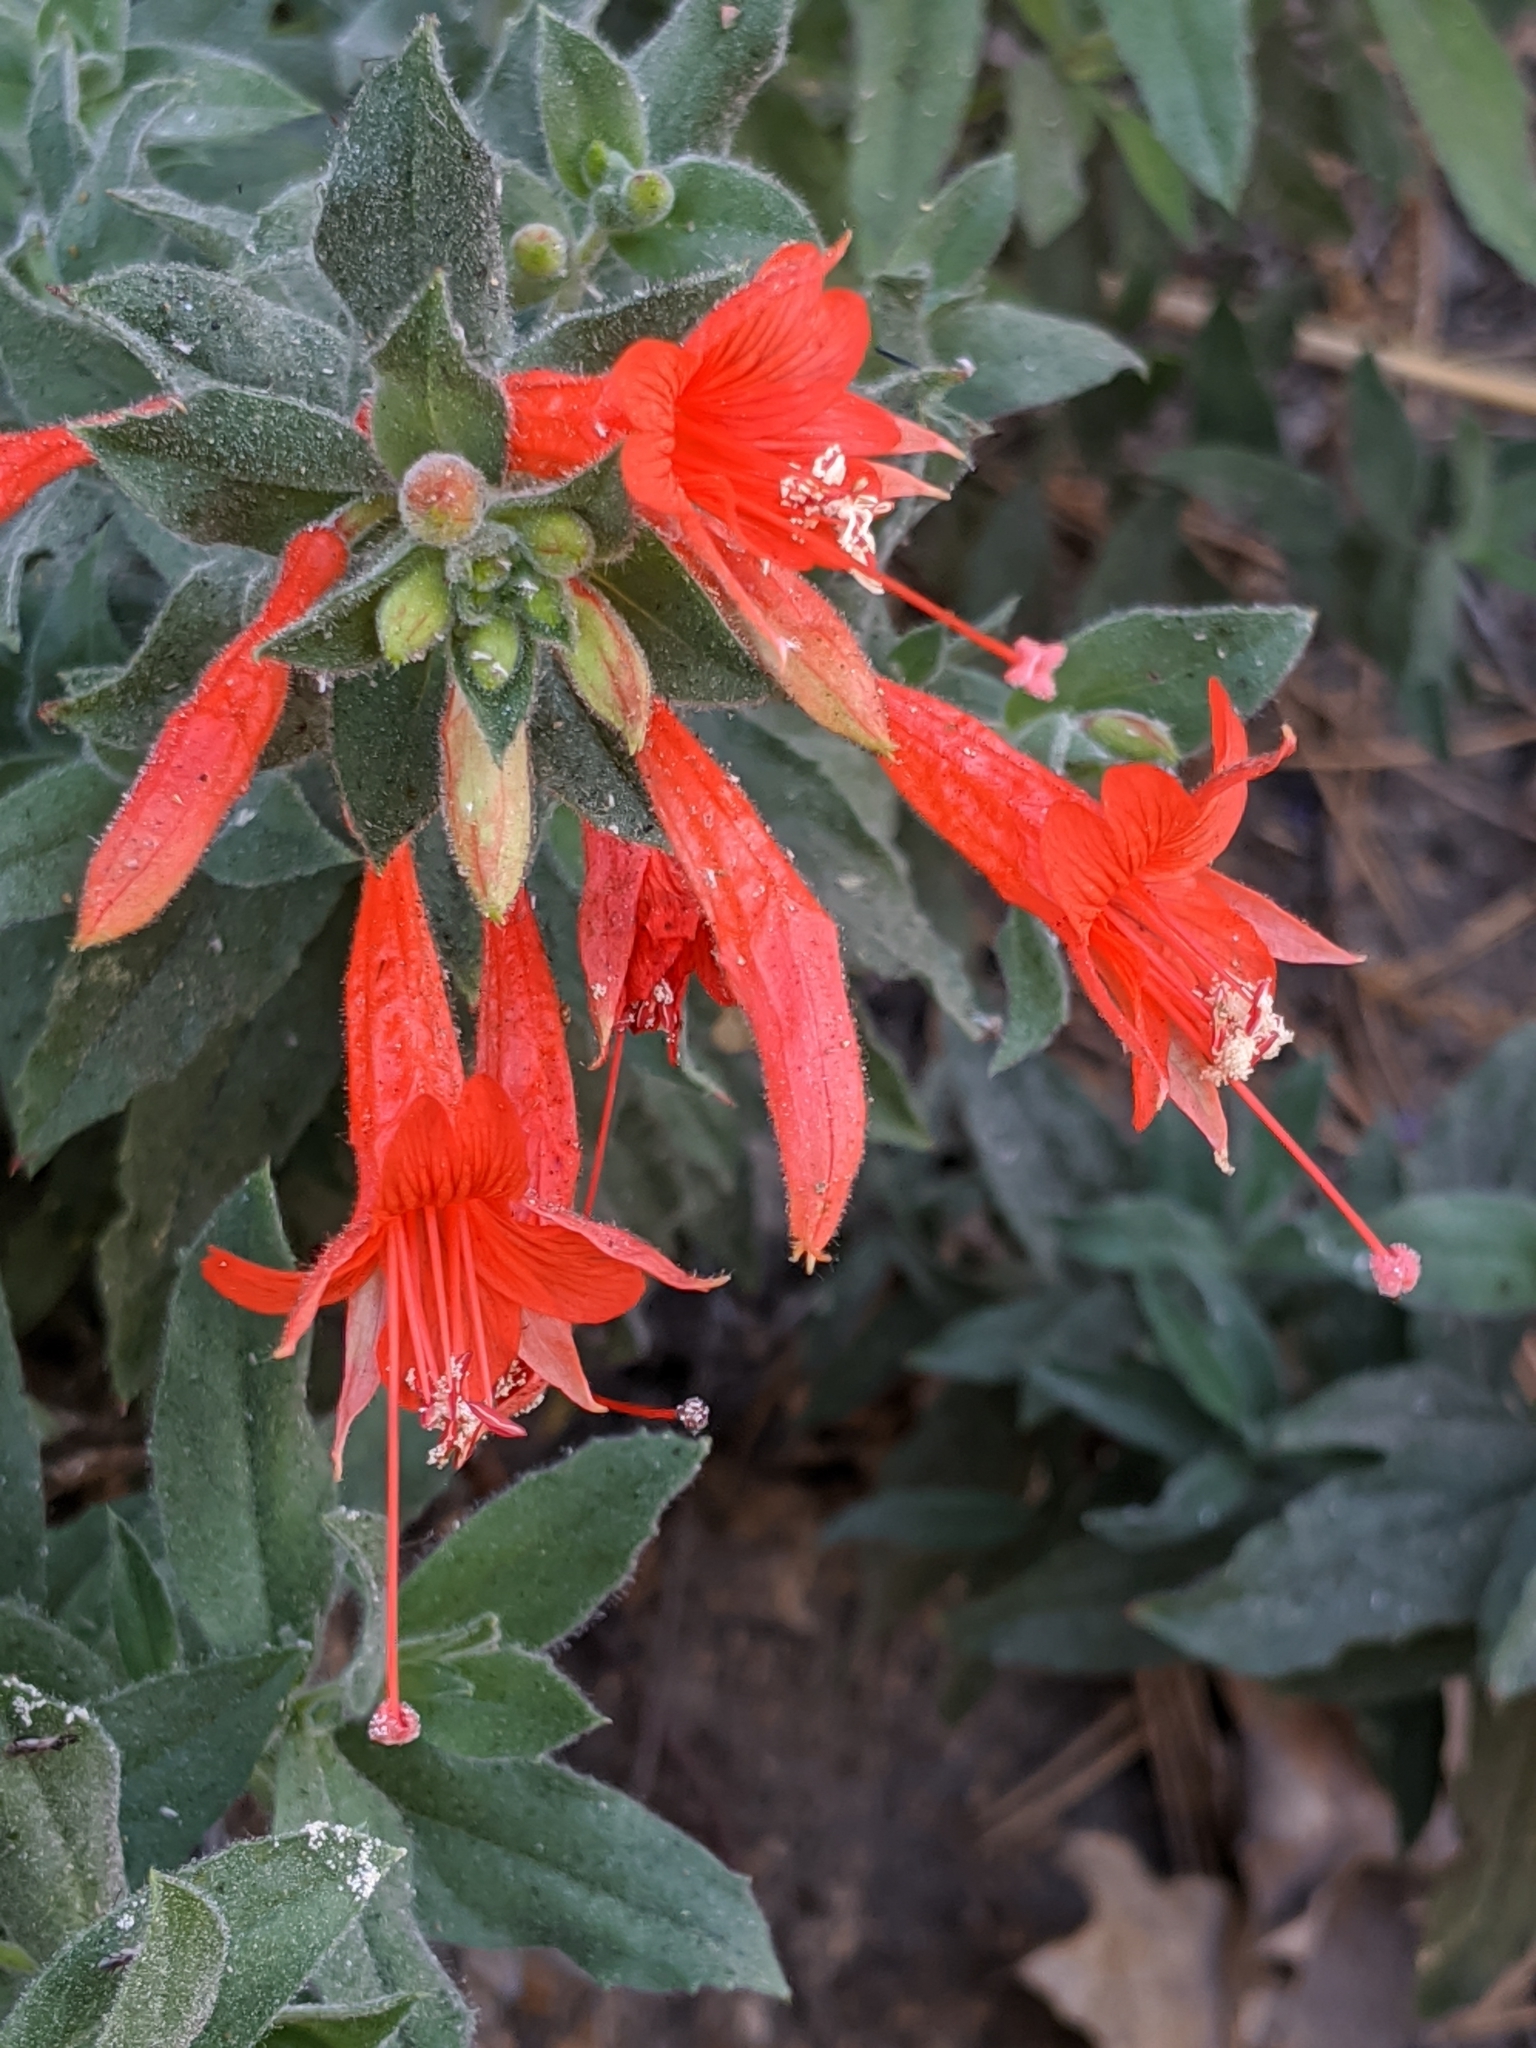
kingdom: Plantae
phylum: Tracheophyta
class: Magnoliopsida
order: Myrtales
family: Onagraceae
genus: Epilobium
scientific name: Epilobium canum
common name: California-fuchsia
